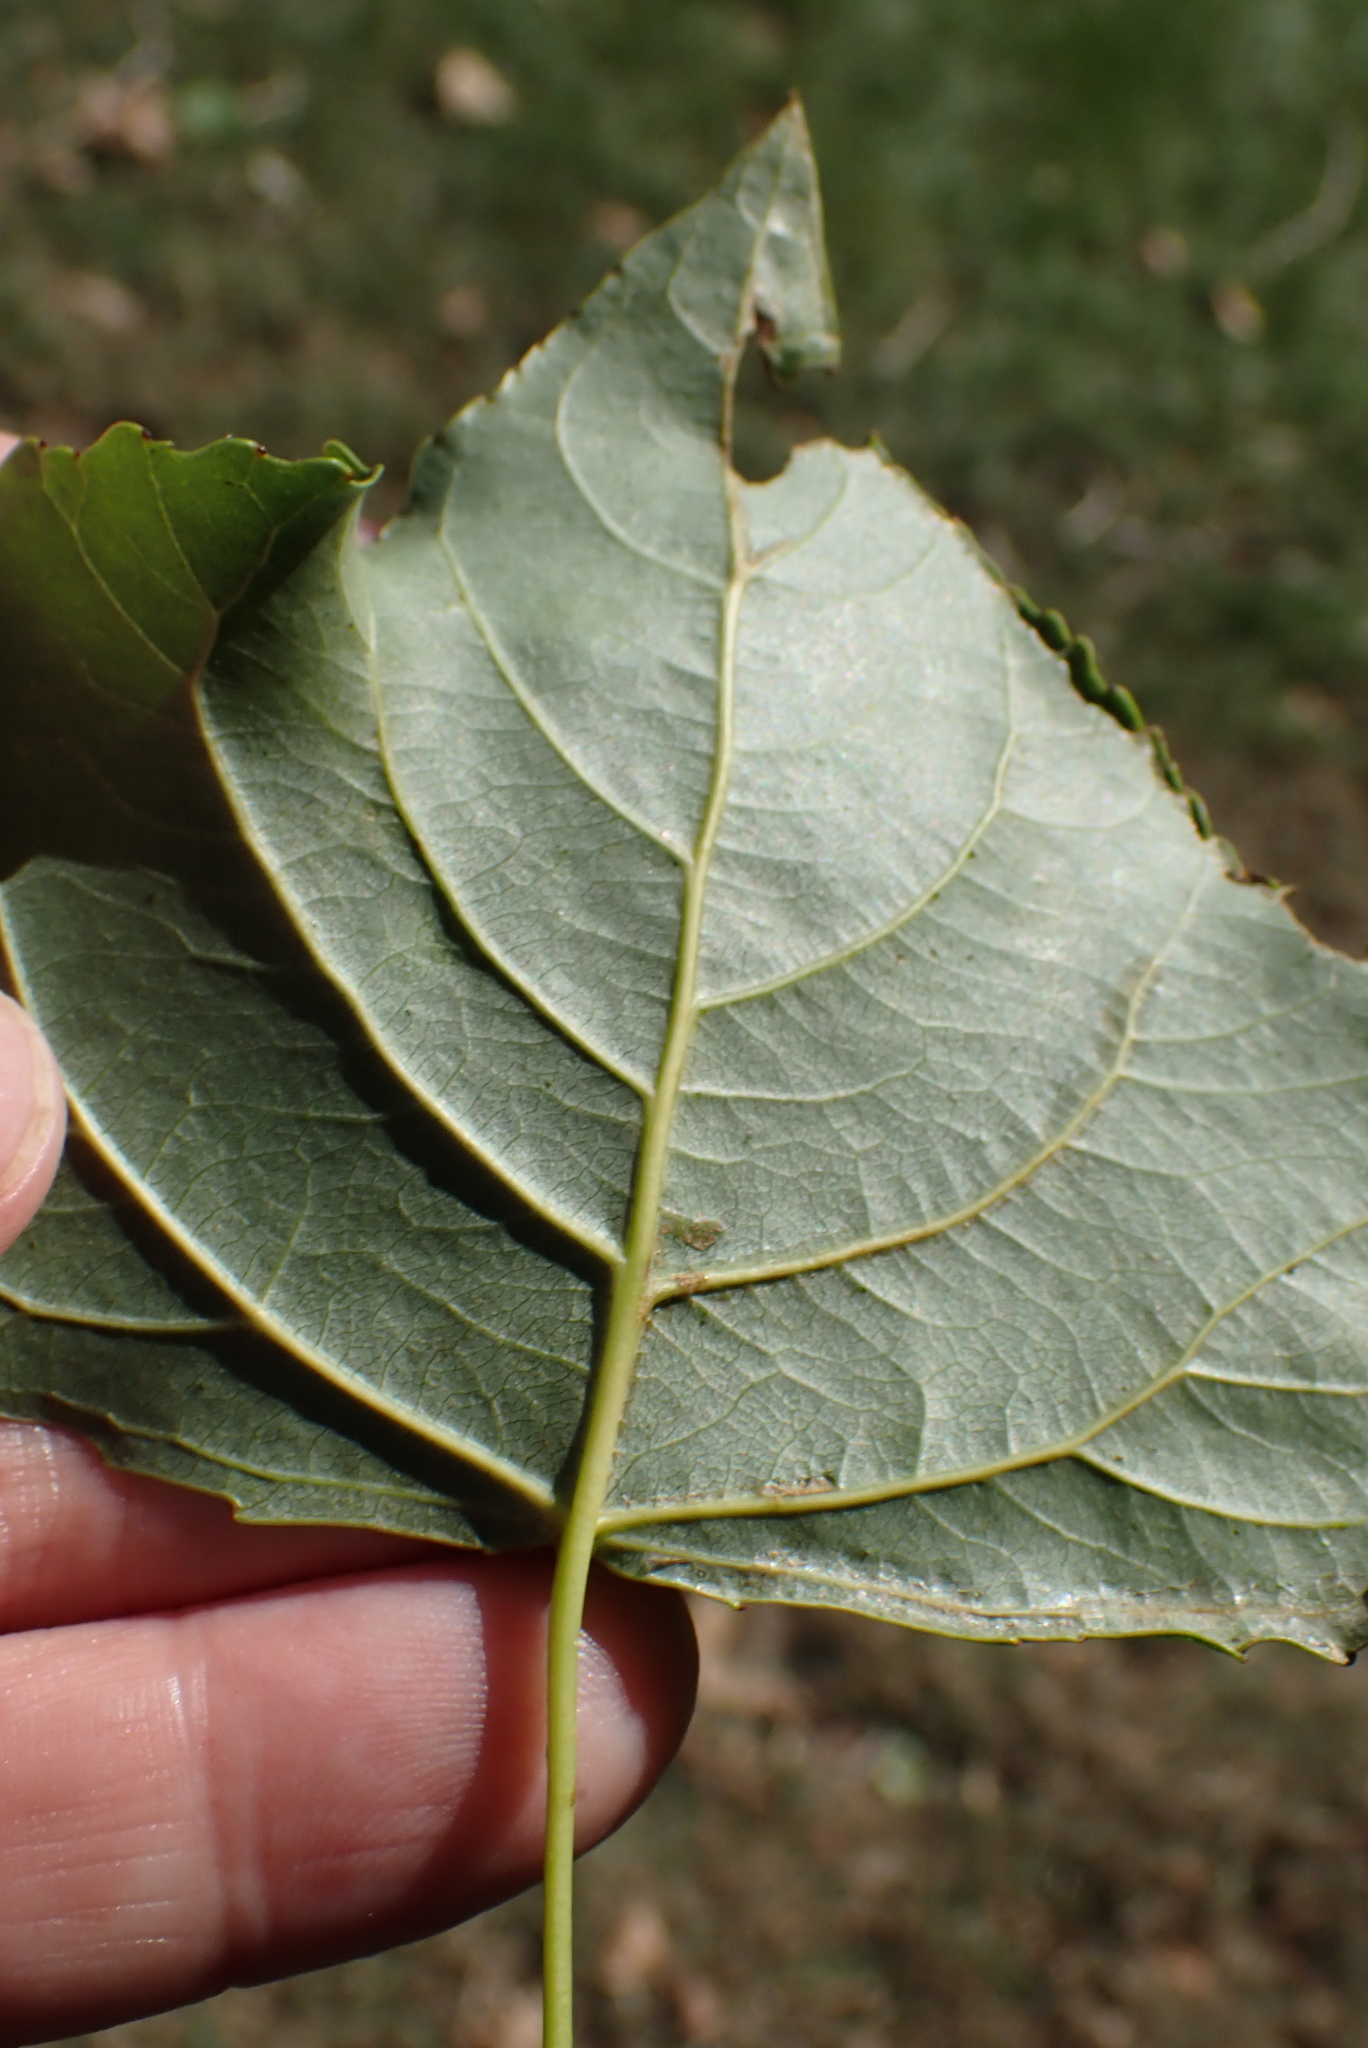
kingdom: Plantae
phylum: Tracheophyta
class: Magnoliopsida
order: Malpighiales
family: Salicaceae
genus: Populus
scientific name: Populus nigra
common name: Black poplar
